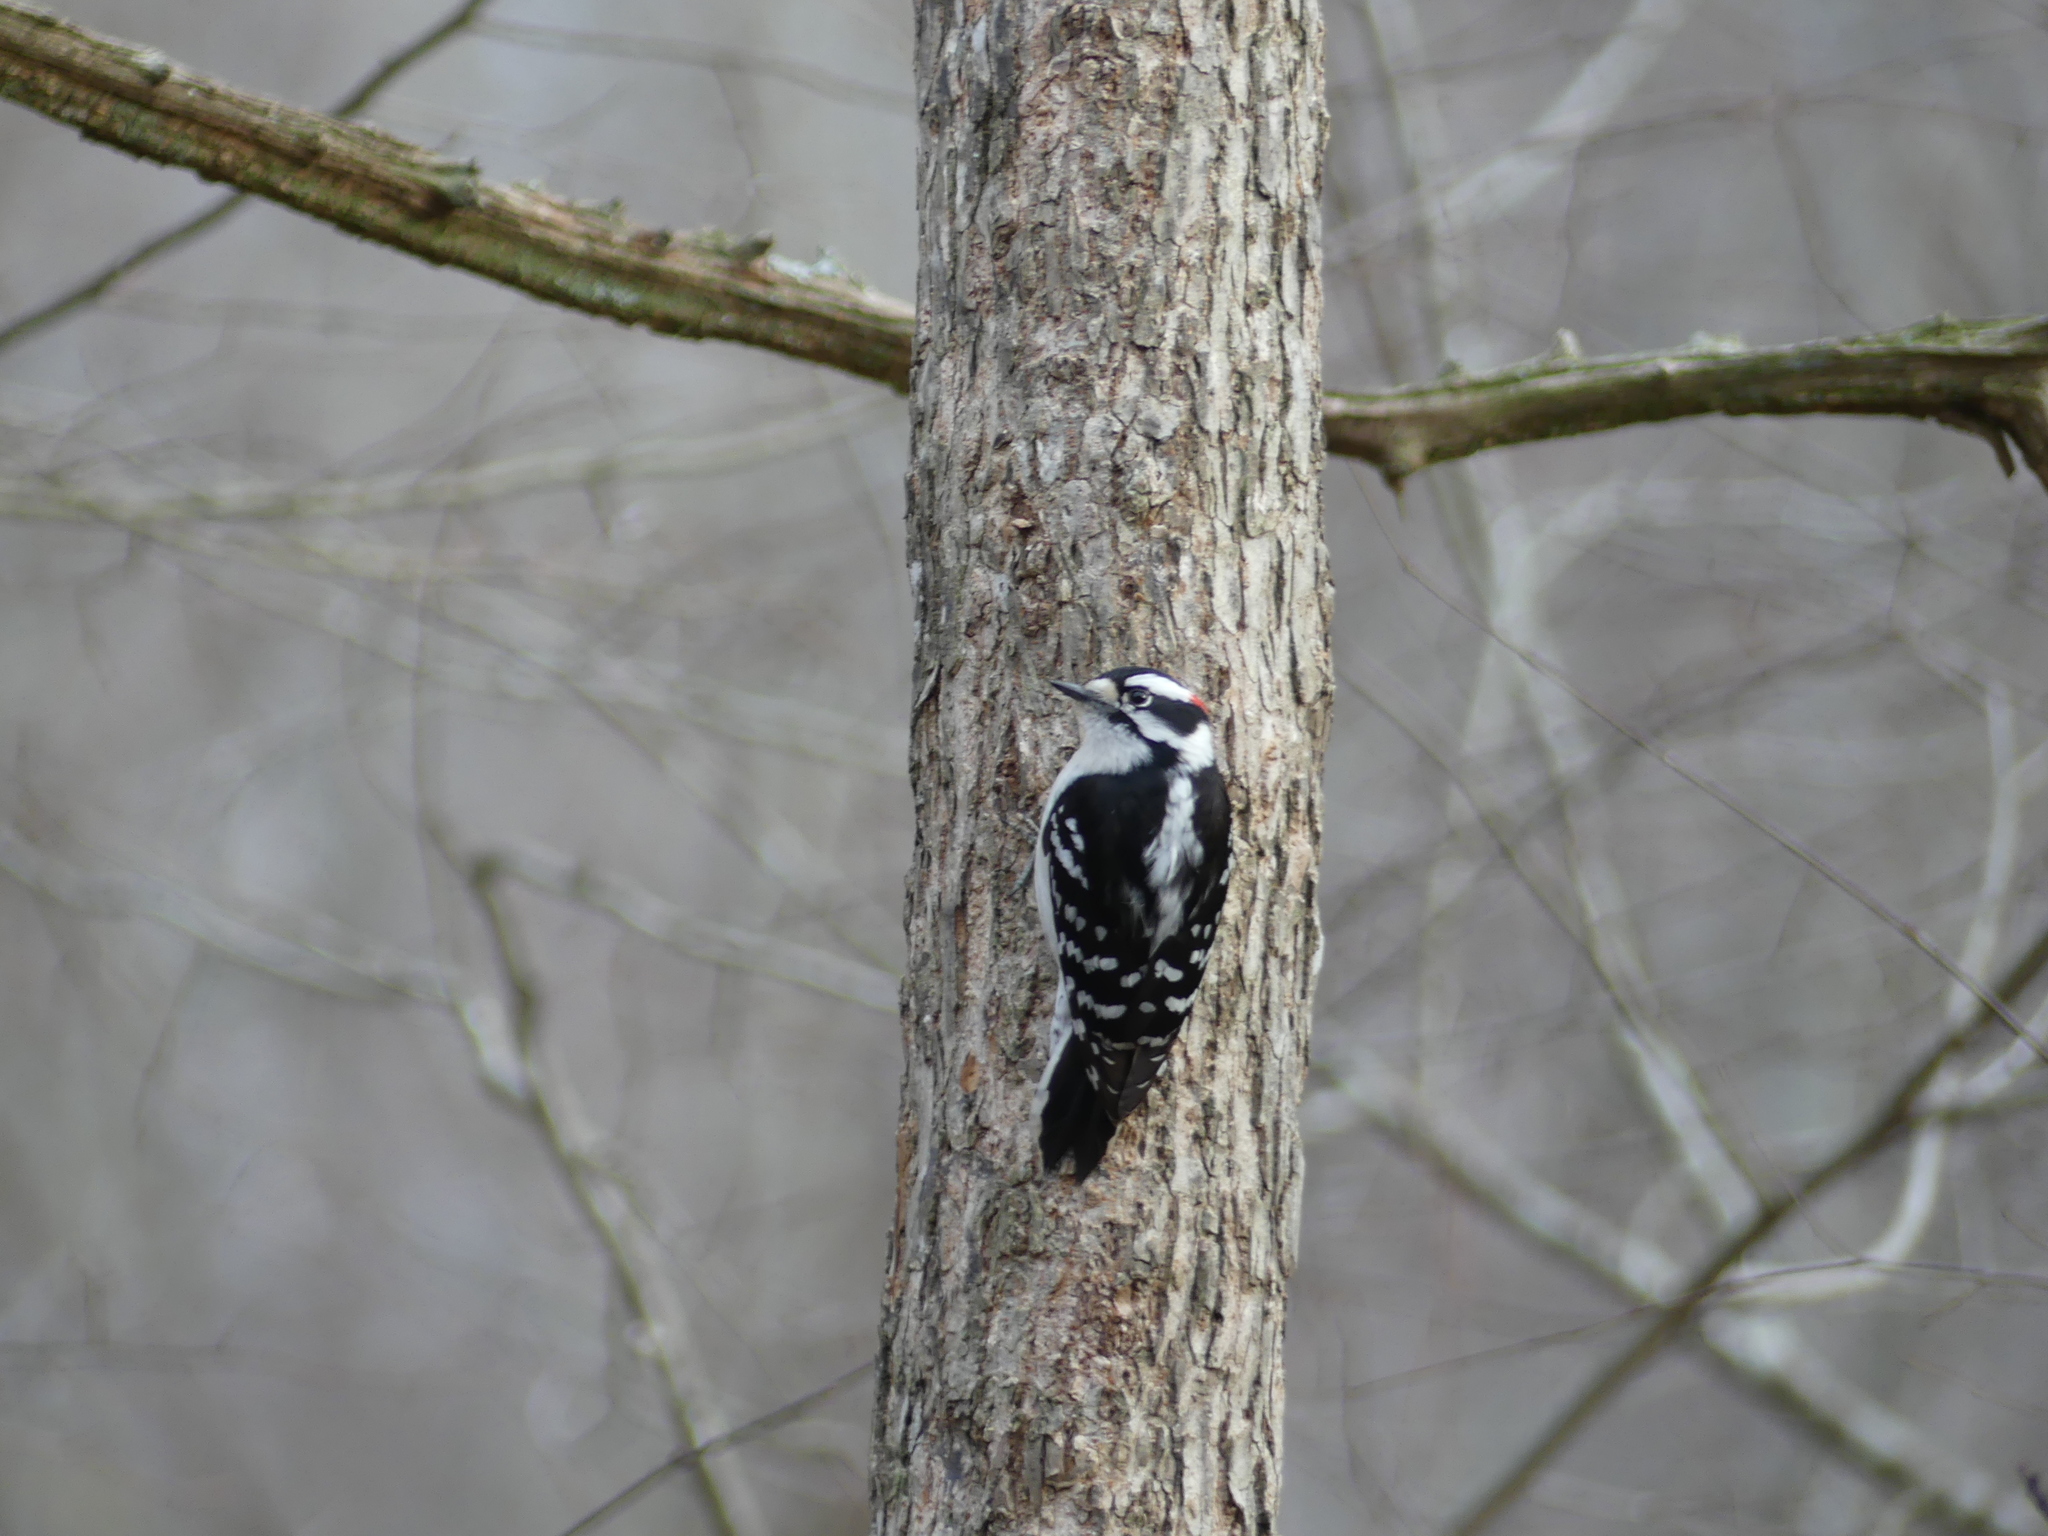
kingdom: Animalia
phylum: Chordata
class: Aves
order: Piciformes
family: Picidae
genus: Dryobates
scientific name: Dryobates pubescens
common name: Downy woodpecker
